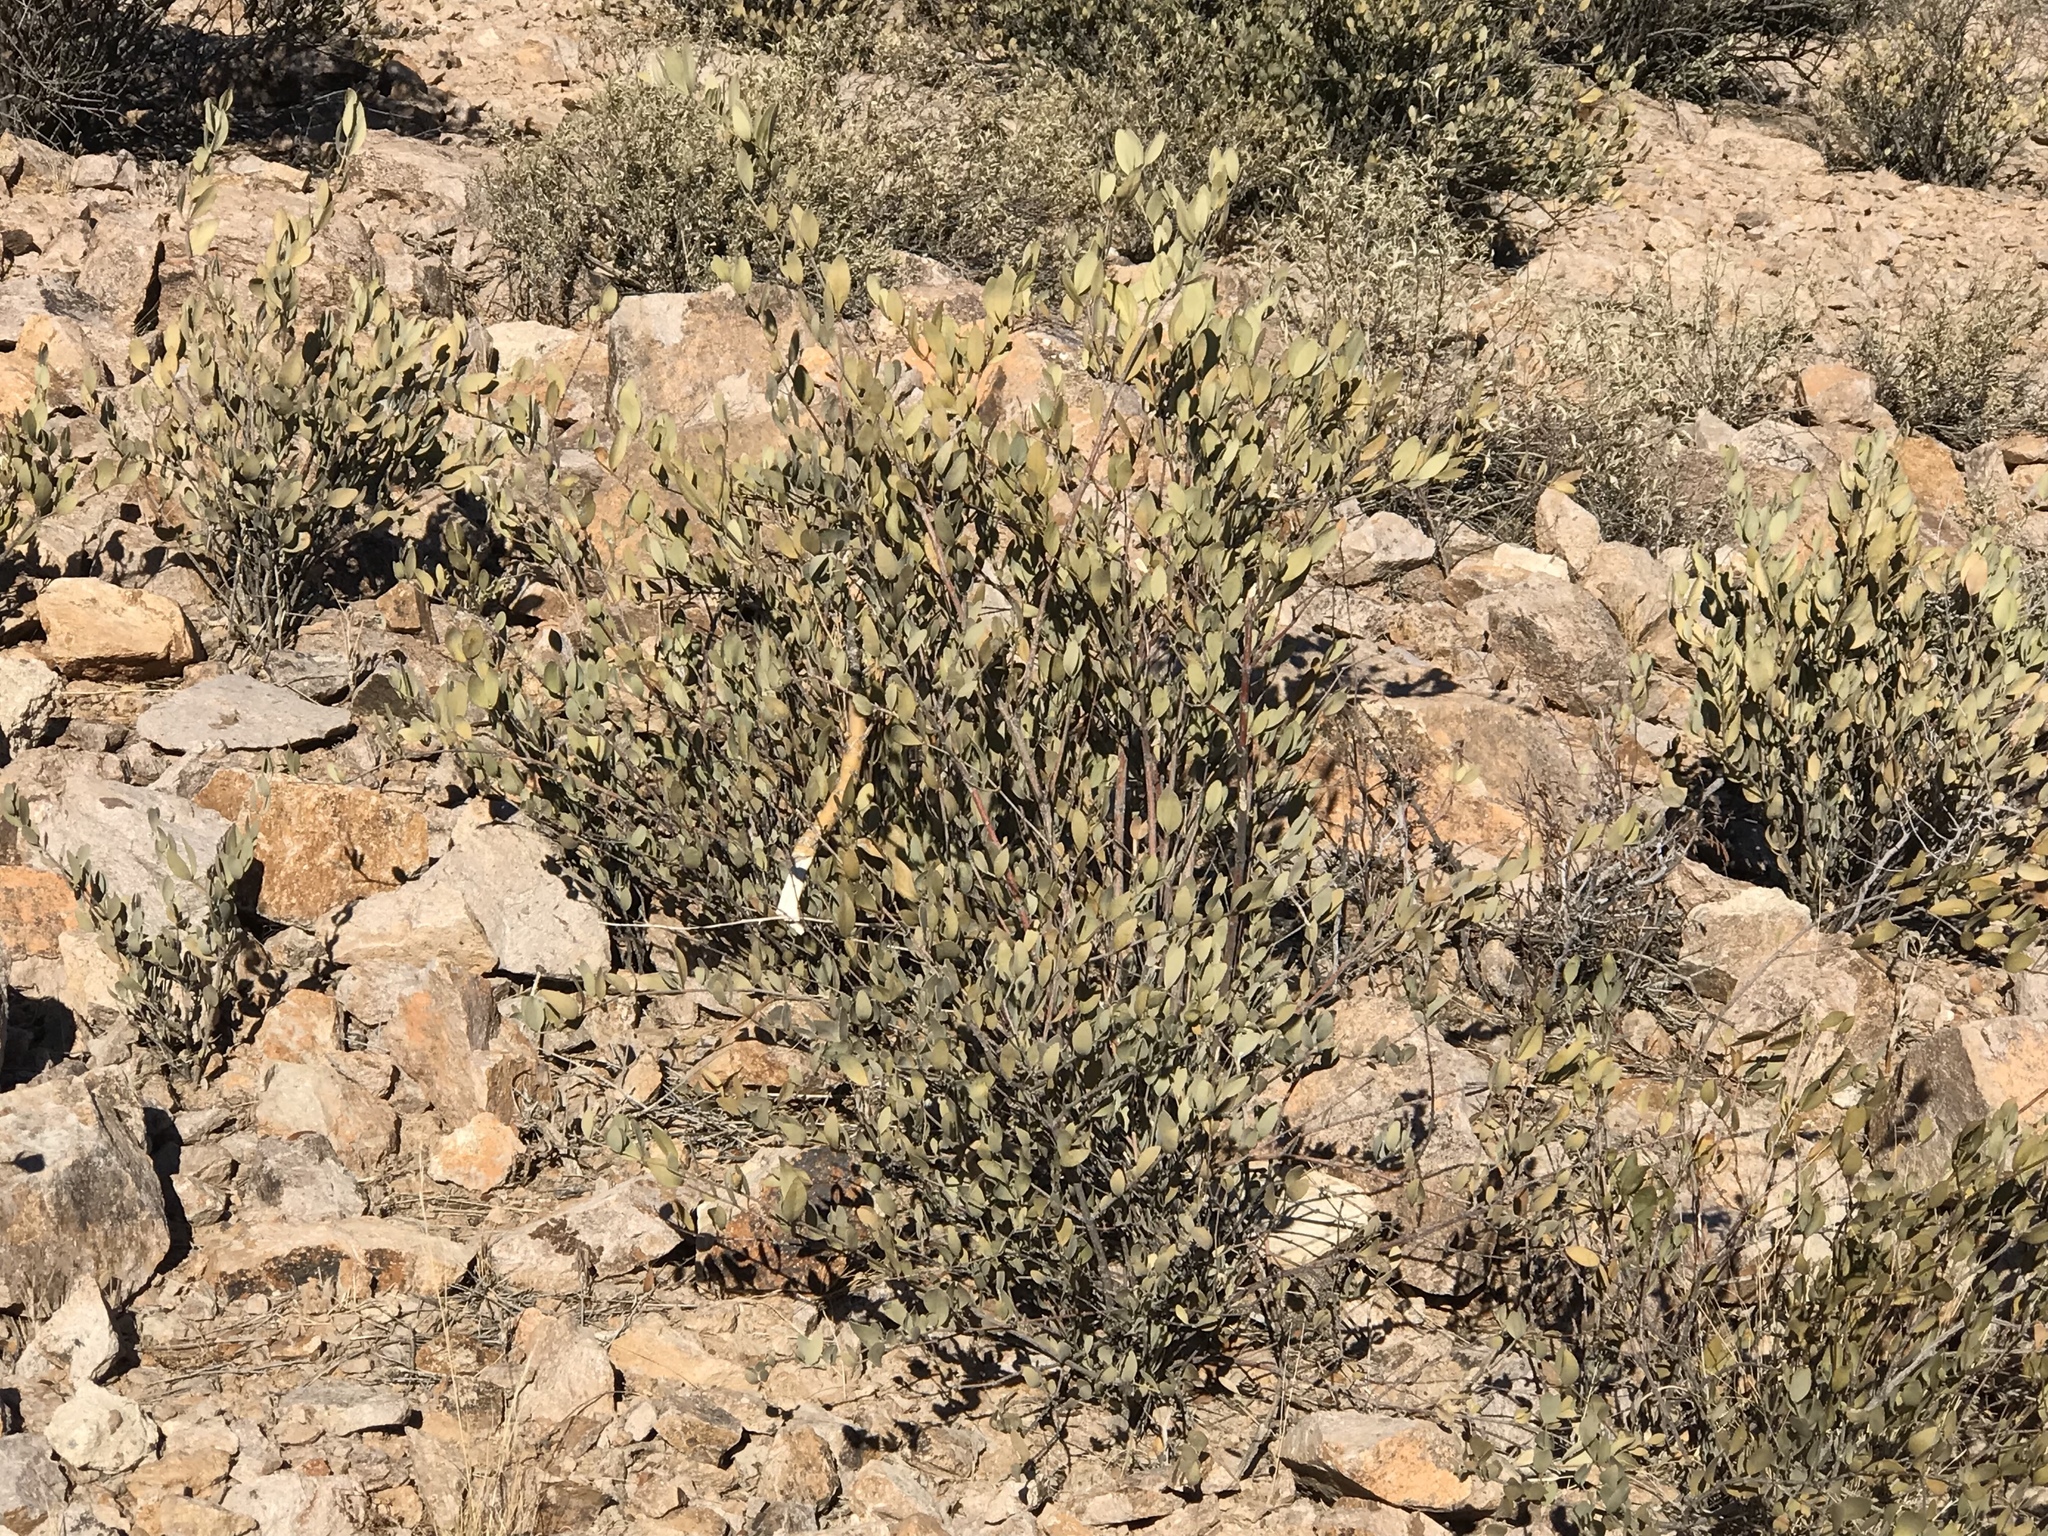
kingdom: Plantae
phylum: Tracheophyta
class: Magnoliopsida
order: Caryophyllales
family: Simmondsiaceae
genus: Simmondsia
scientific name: Simmondsia chinensis
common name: Jojoba
